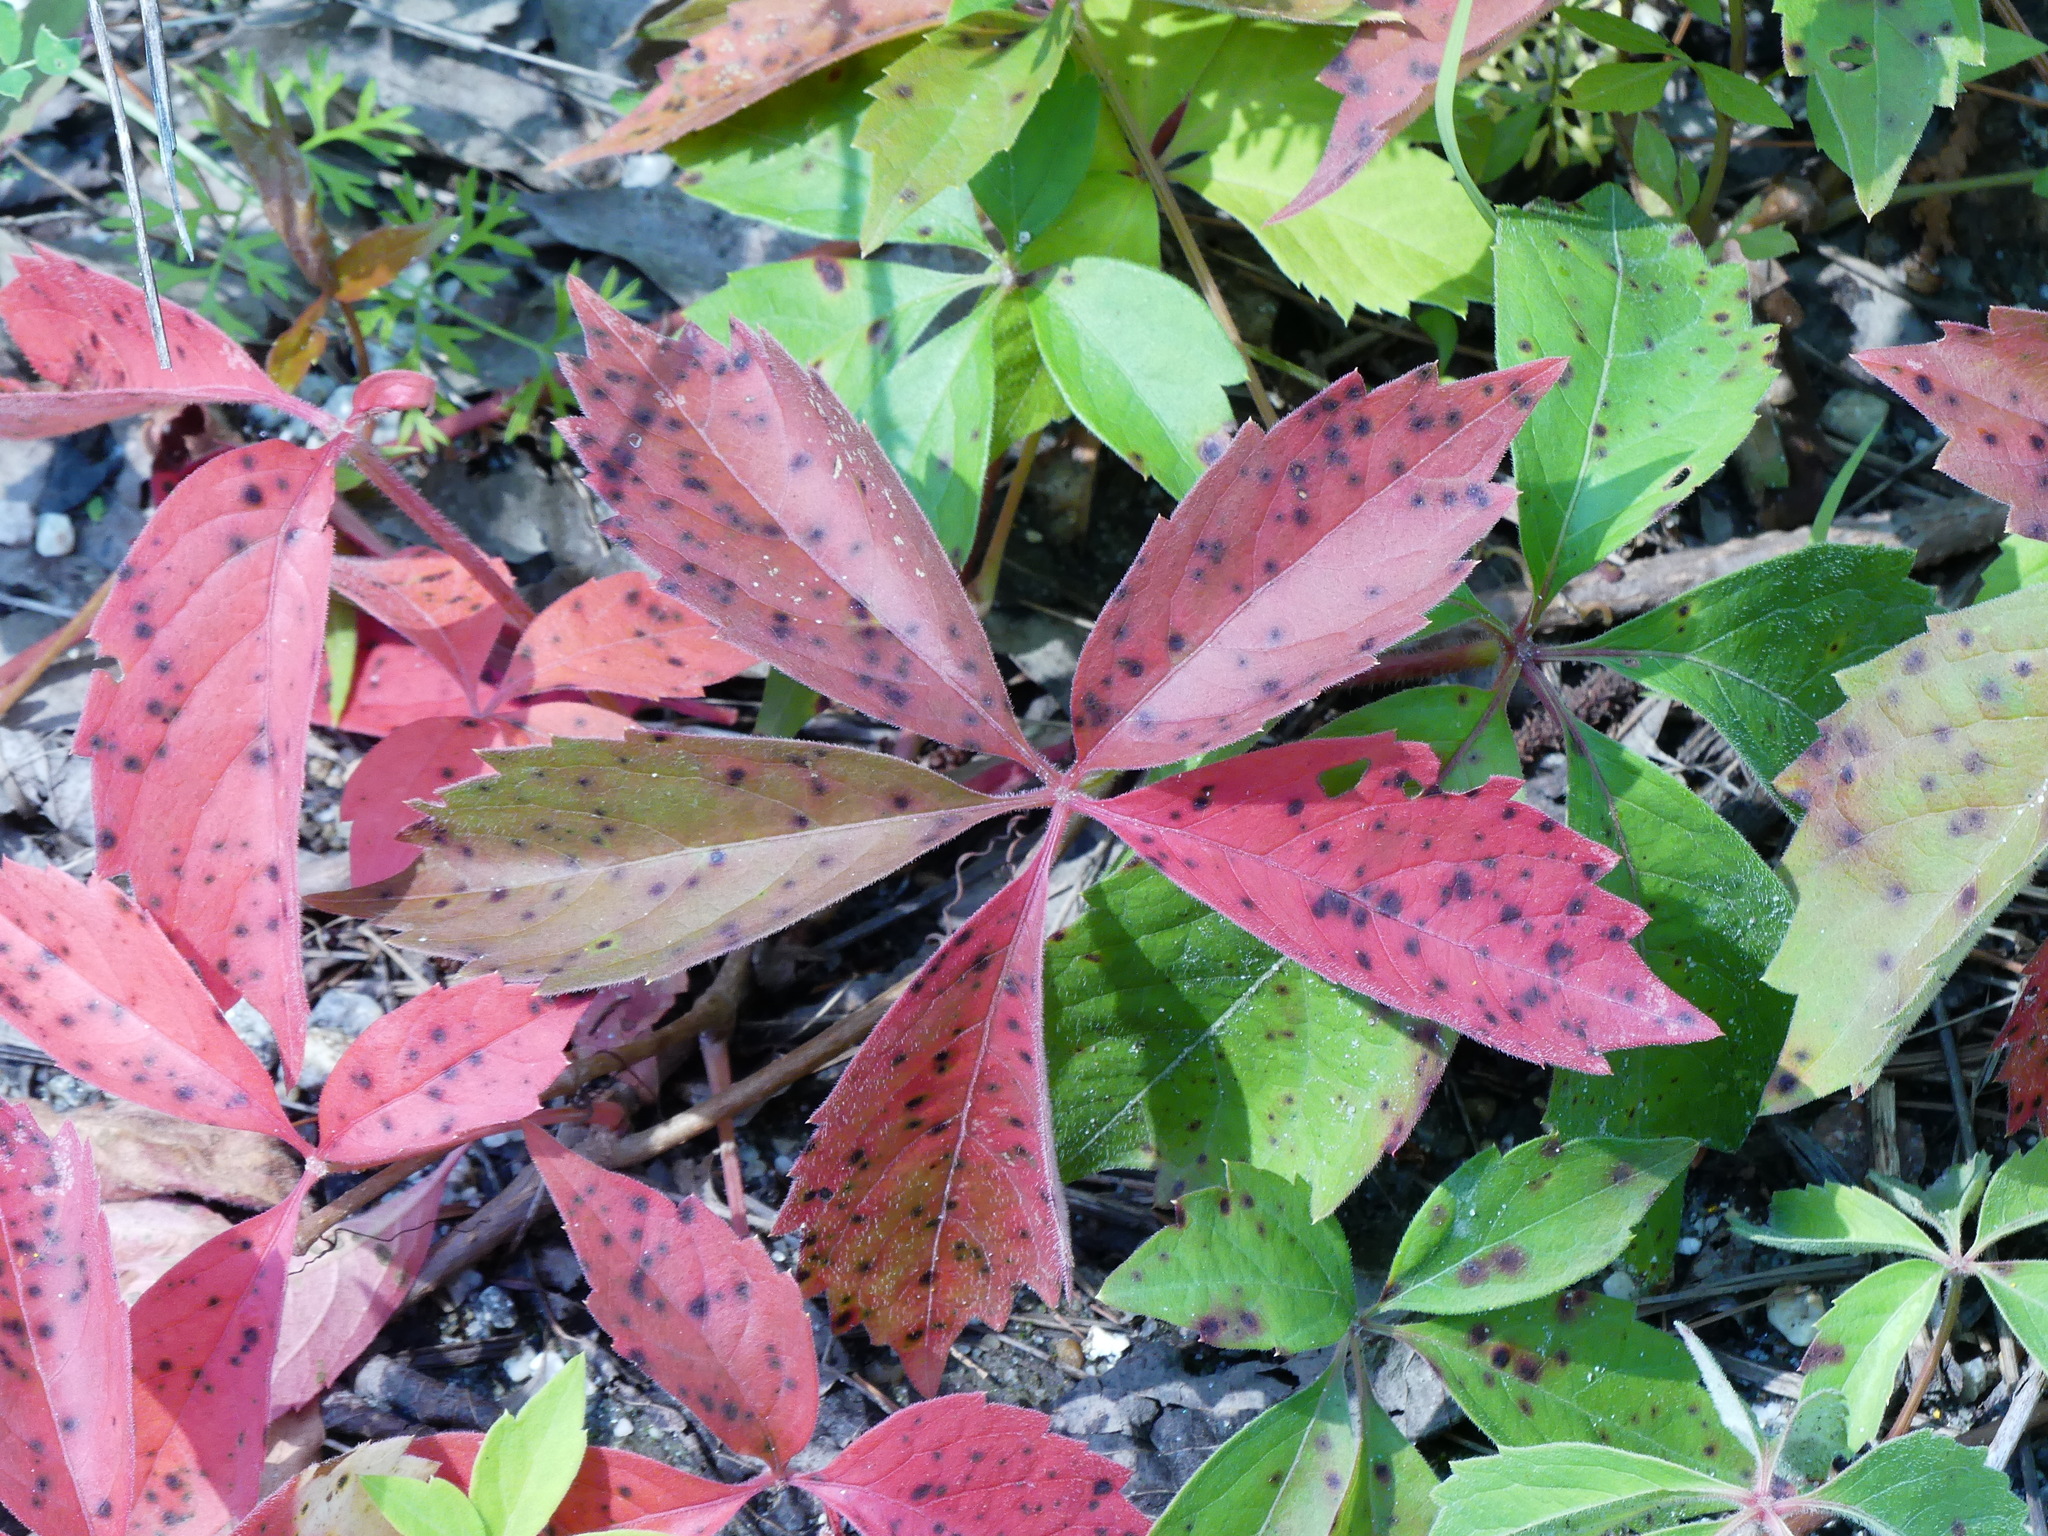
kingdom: Plantae
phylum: Tracheophyta
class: Magnoliopsida
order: Vitales
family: Vitaceae
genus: Parthenocissus
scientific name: Parthenocissus quinquefolia
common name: Virginia-creeper
